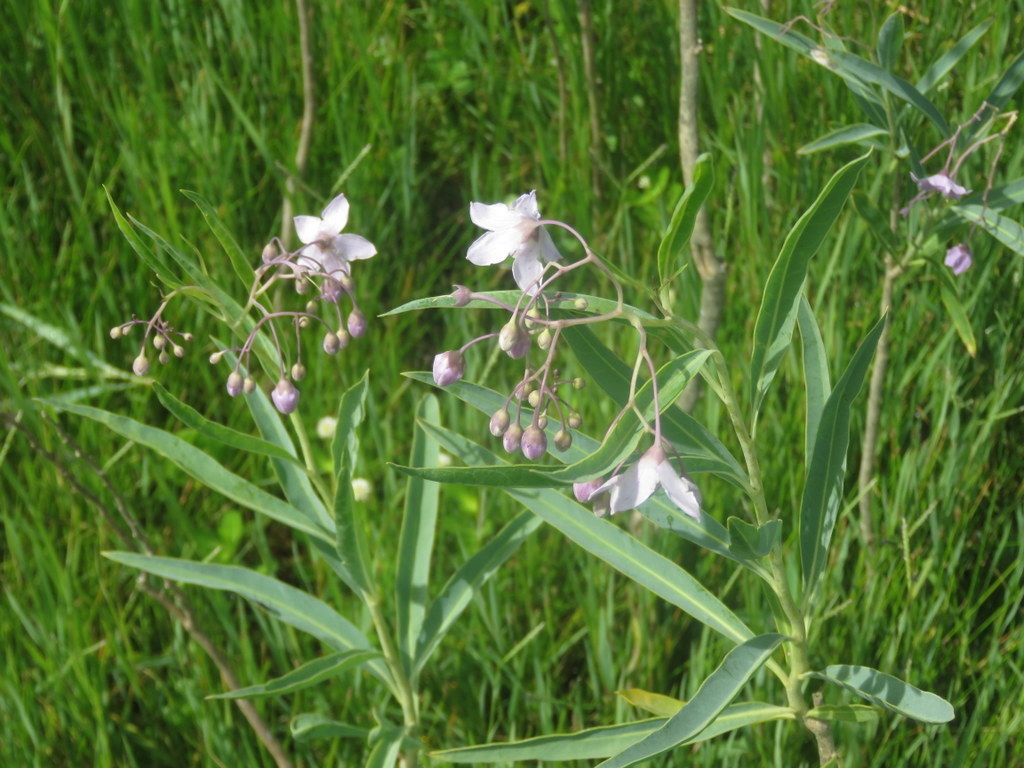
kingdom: Plantae
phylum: Tracheophyta
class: Magnoliopsida
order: Solanales
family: Solanaceae
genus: Solanum
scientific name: Solanum glaucophyllum
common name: Waxyleaf nightshade
